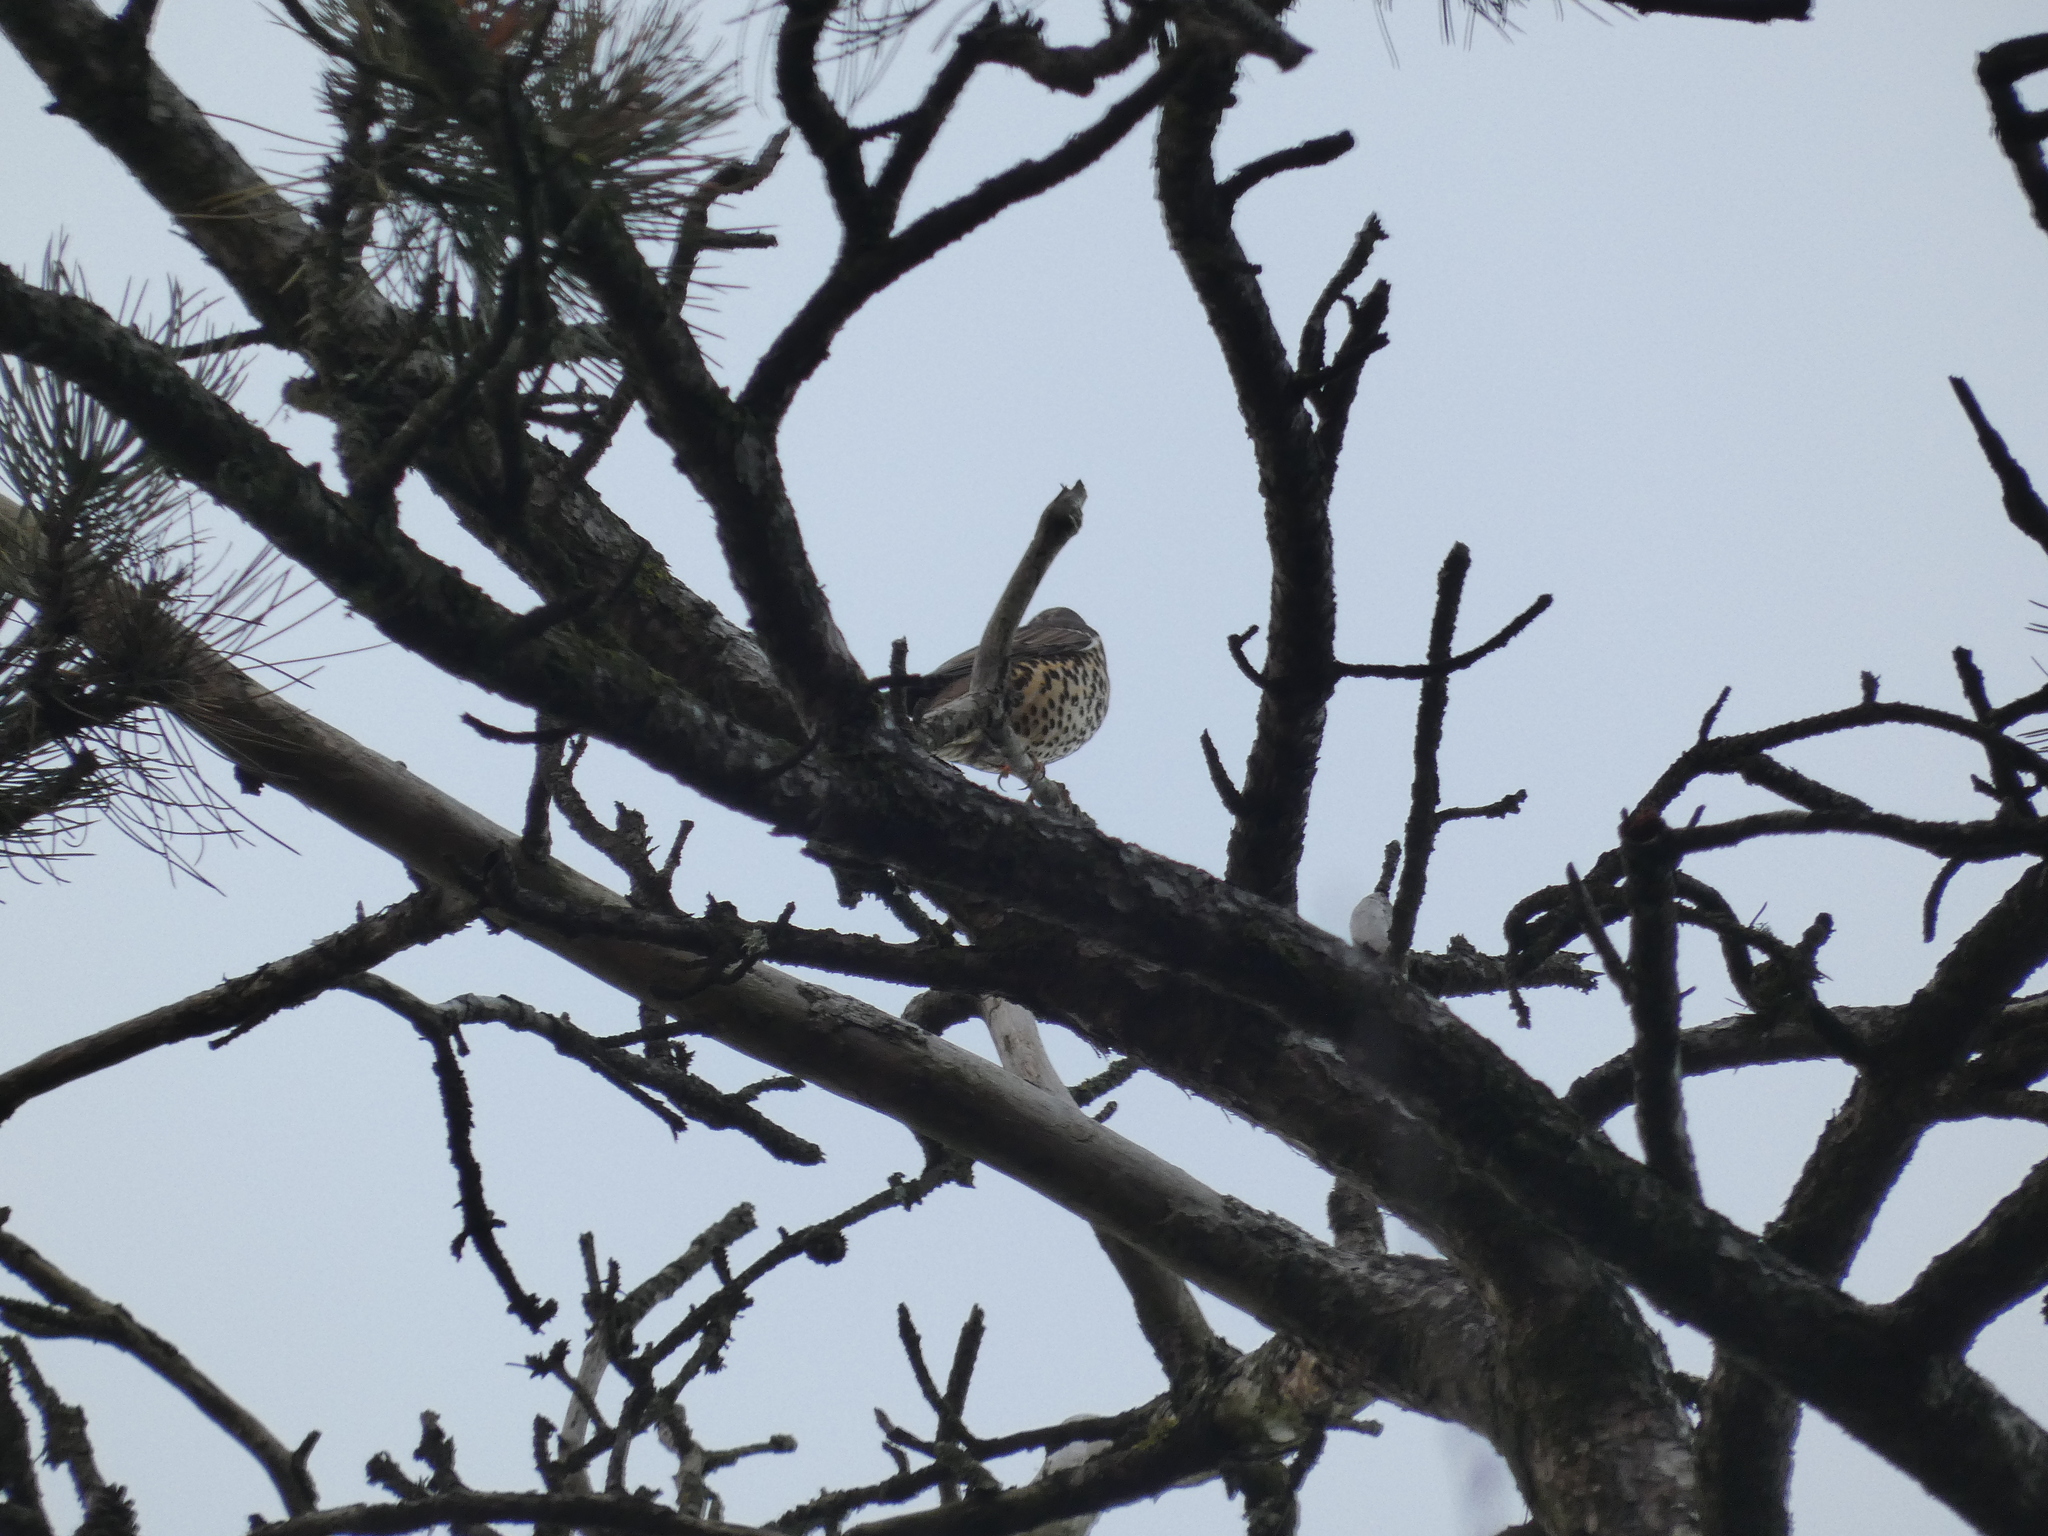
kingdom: Animalia
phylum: Chordata
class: Aves
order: Passeriformes
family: Turdidae
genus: Turdus
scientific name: Turdus viscivorus
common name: Mistle thrush
